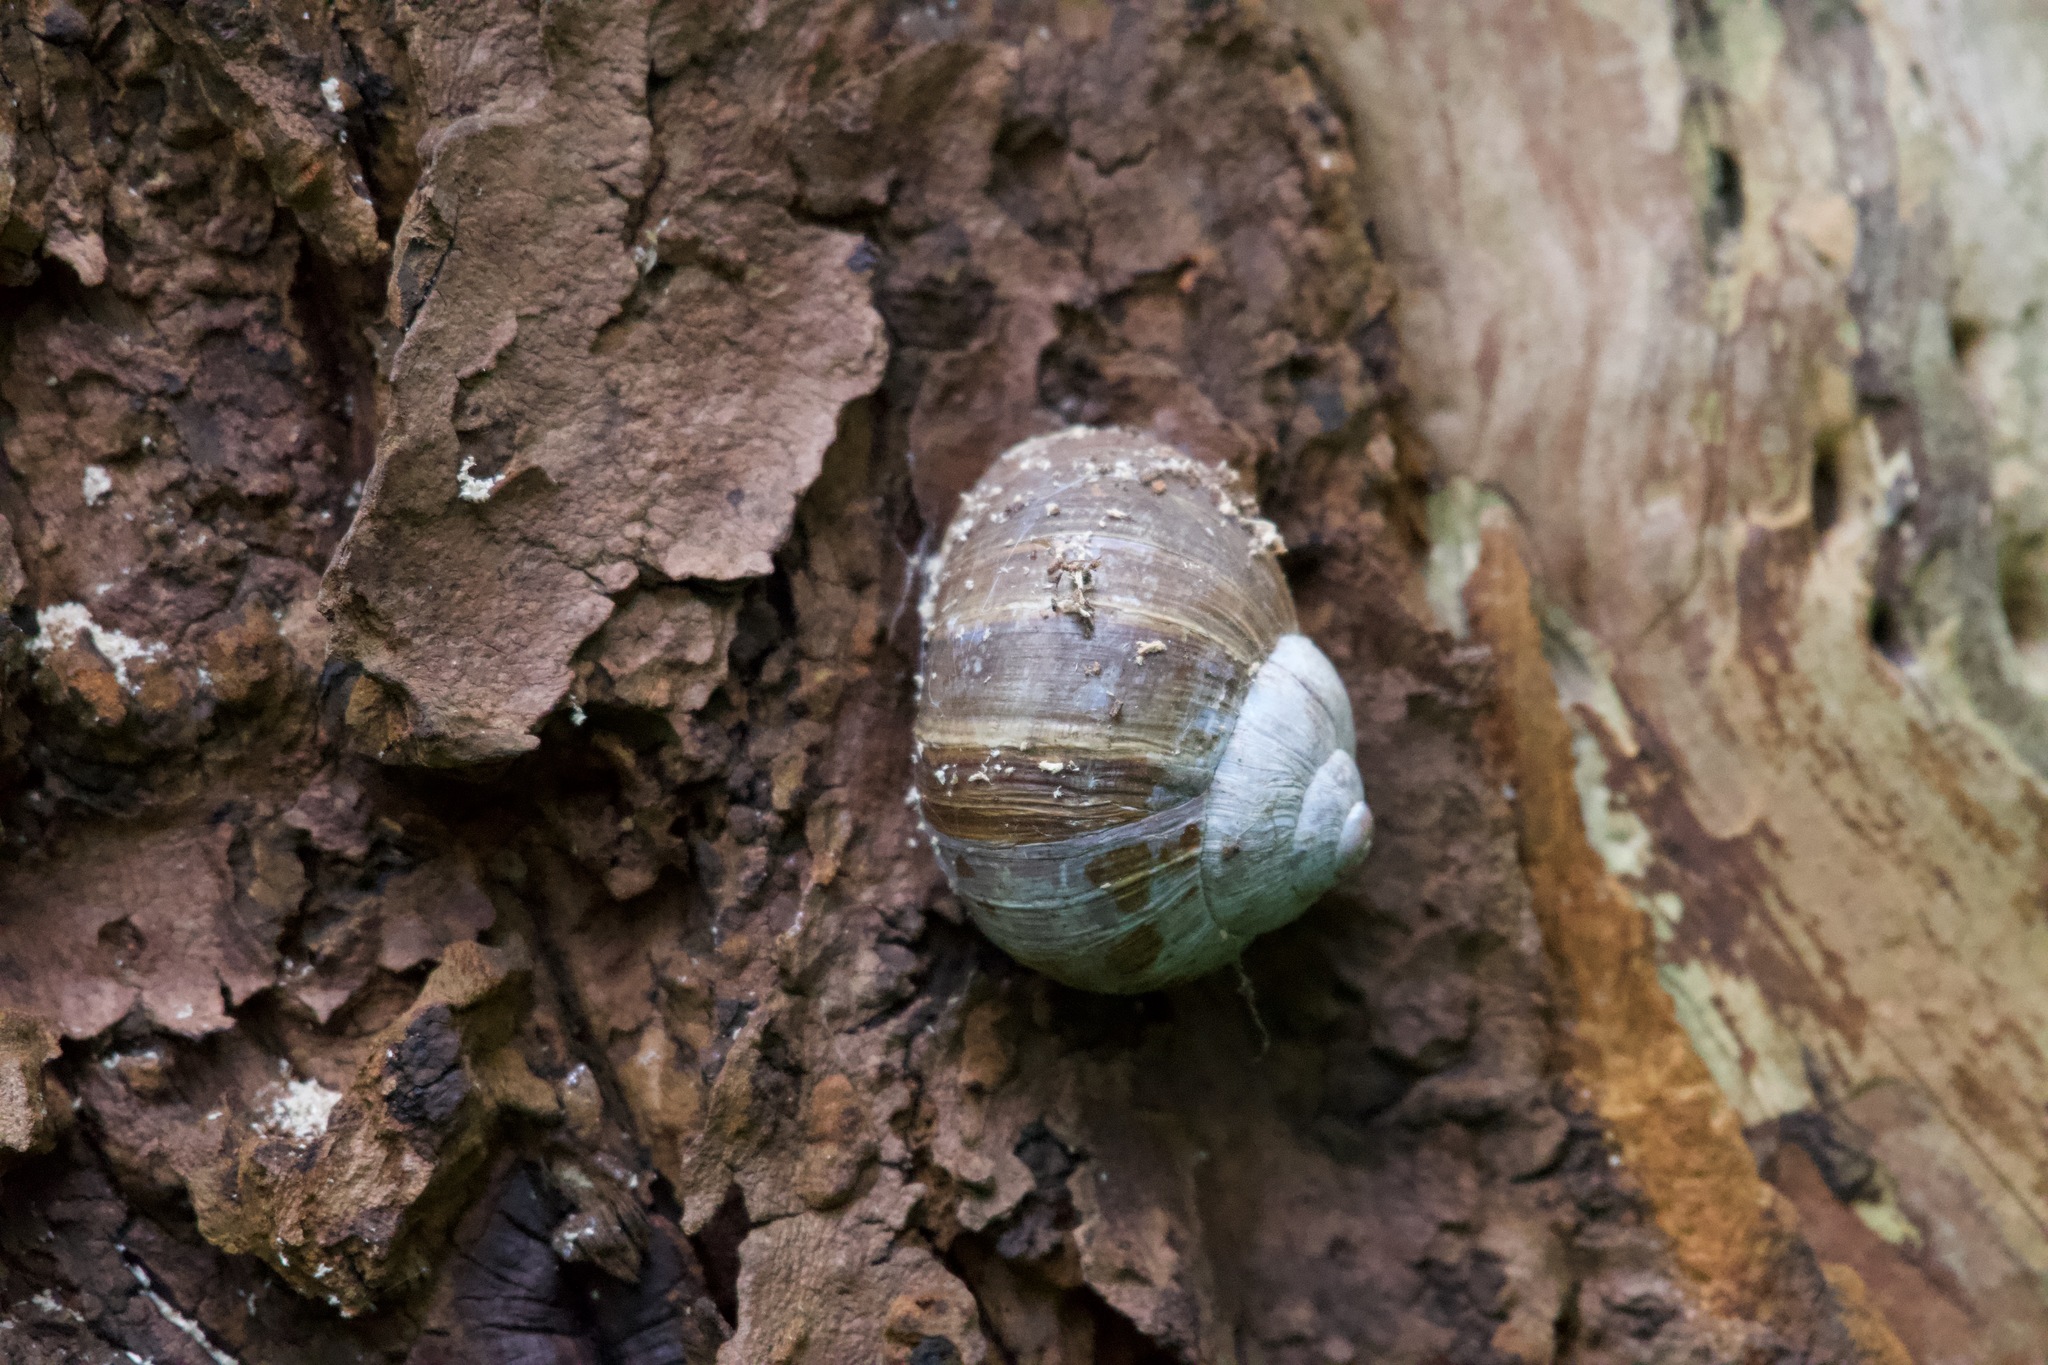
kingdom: Animalia
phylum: Mollusca
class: Gastropoda
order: Stylommatophora
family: Helicidae
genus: Helix
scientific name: Helix pomatia
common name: Roman snail
